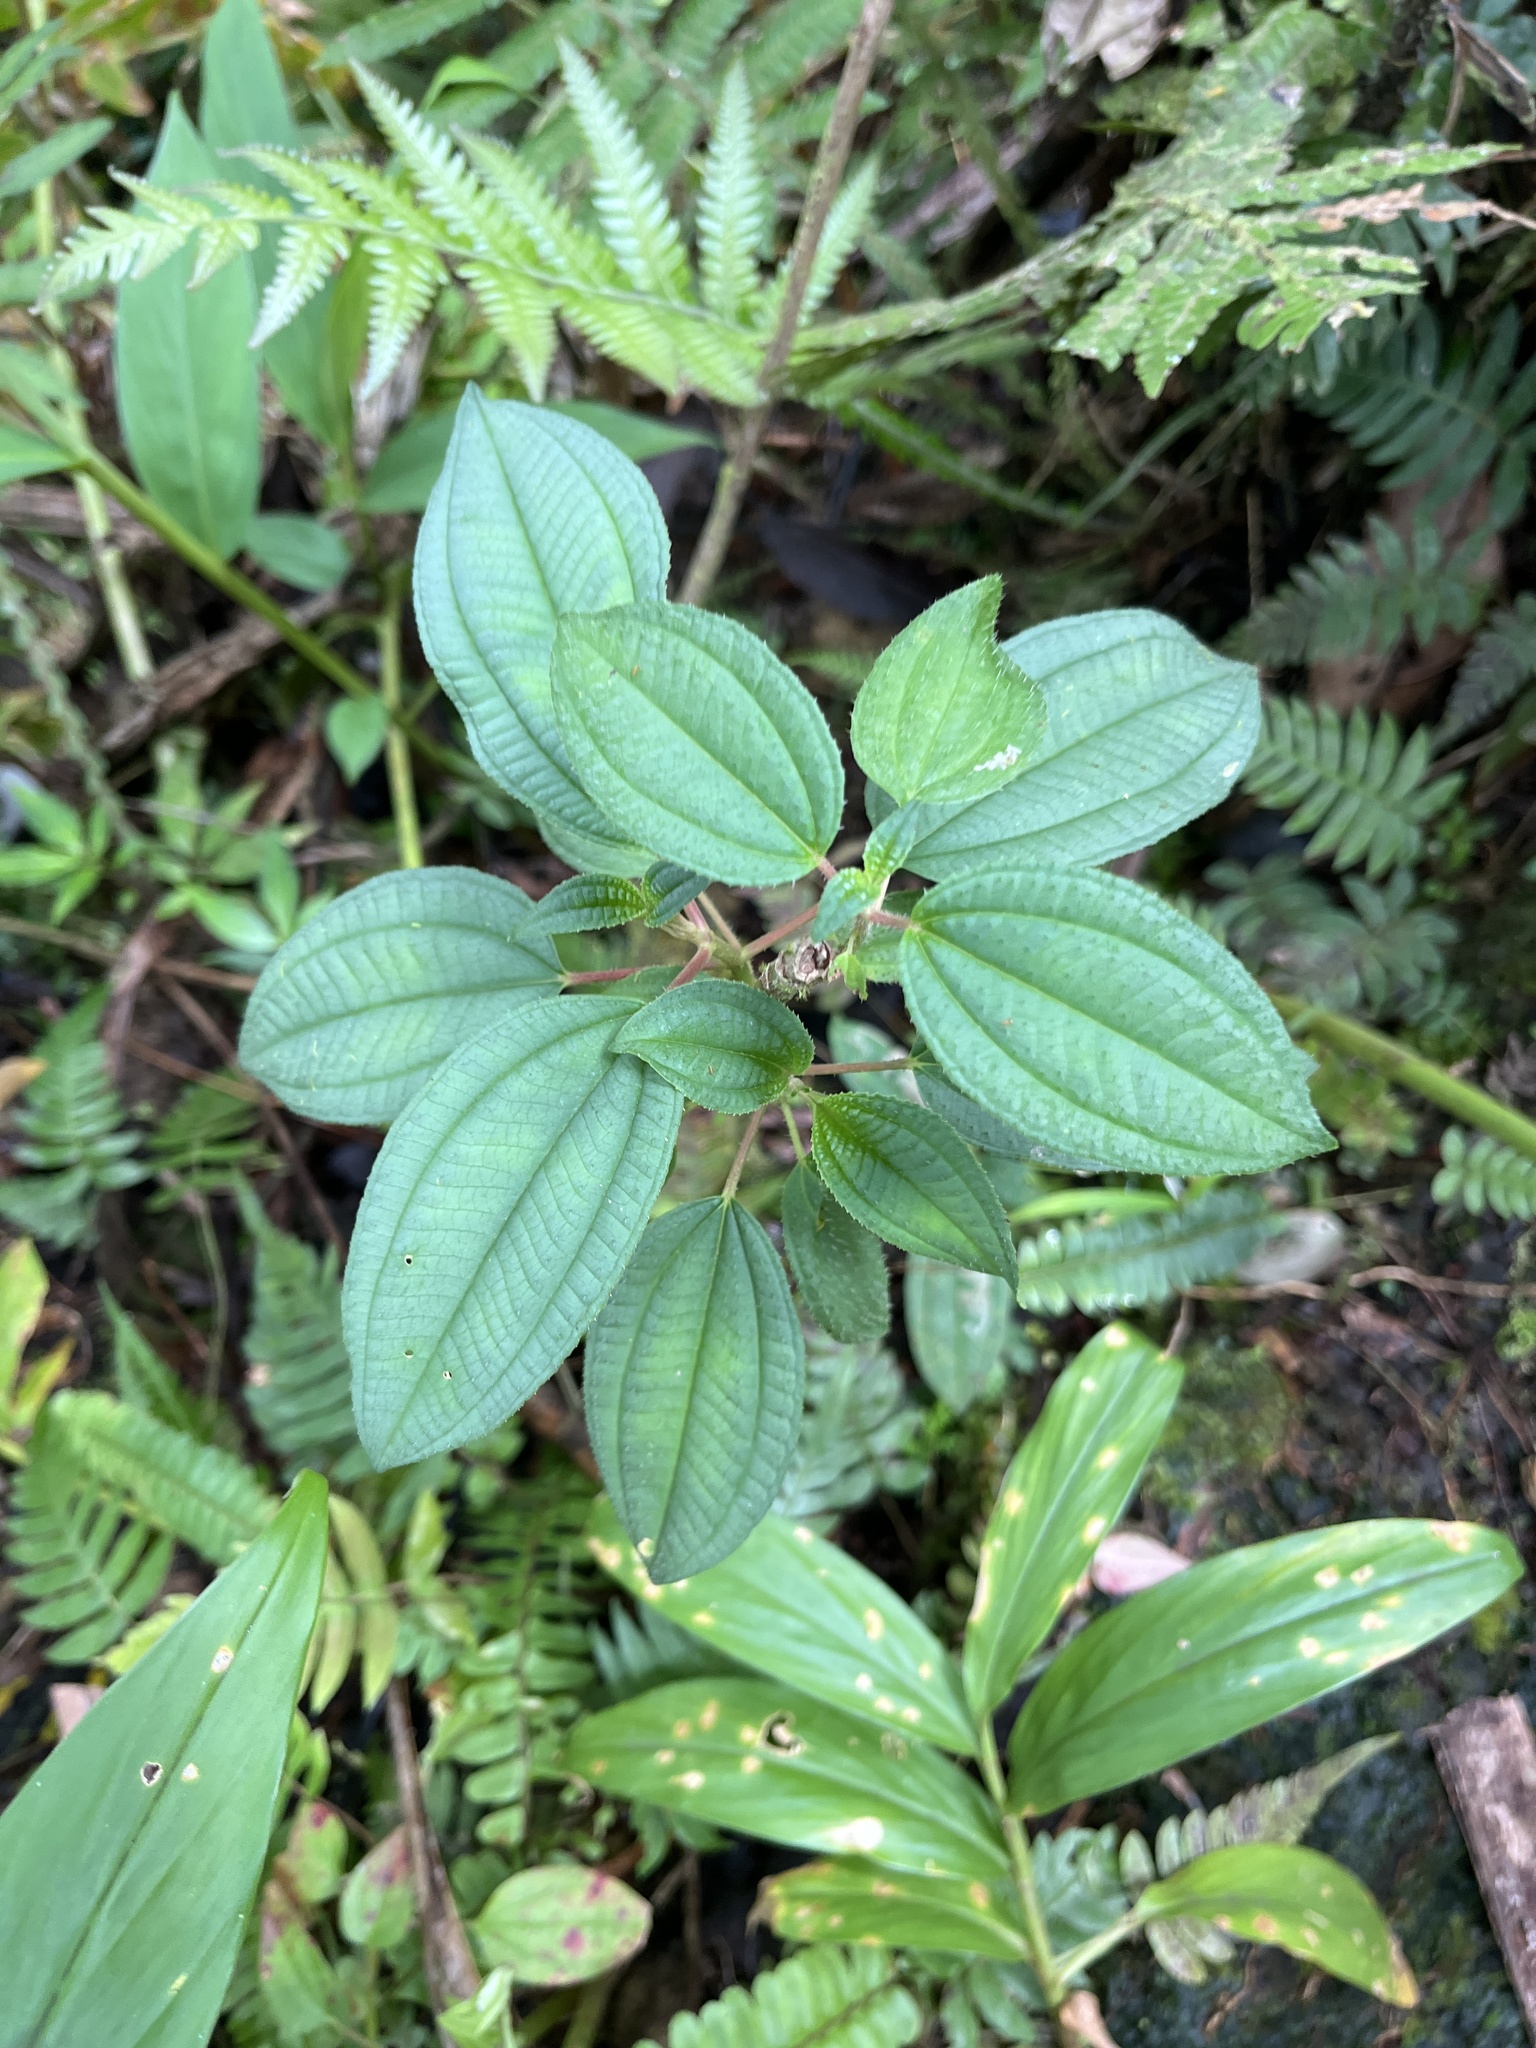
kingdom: Plantae
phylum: Tracheophyta
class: Magnoliopsida
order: Myrtales
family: Melastomataceae
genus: Miconia
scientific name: Miconia sintenisii
